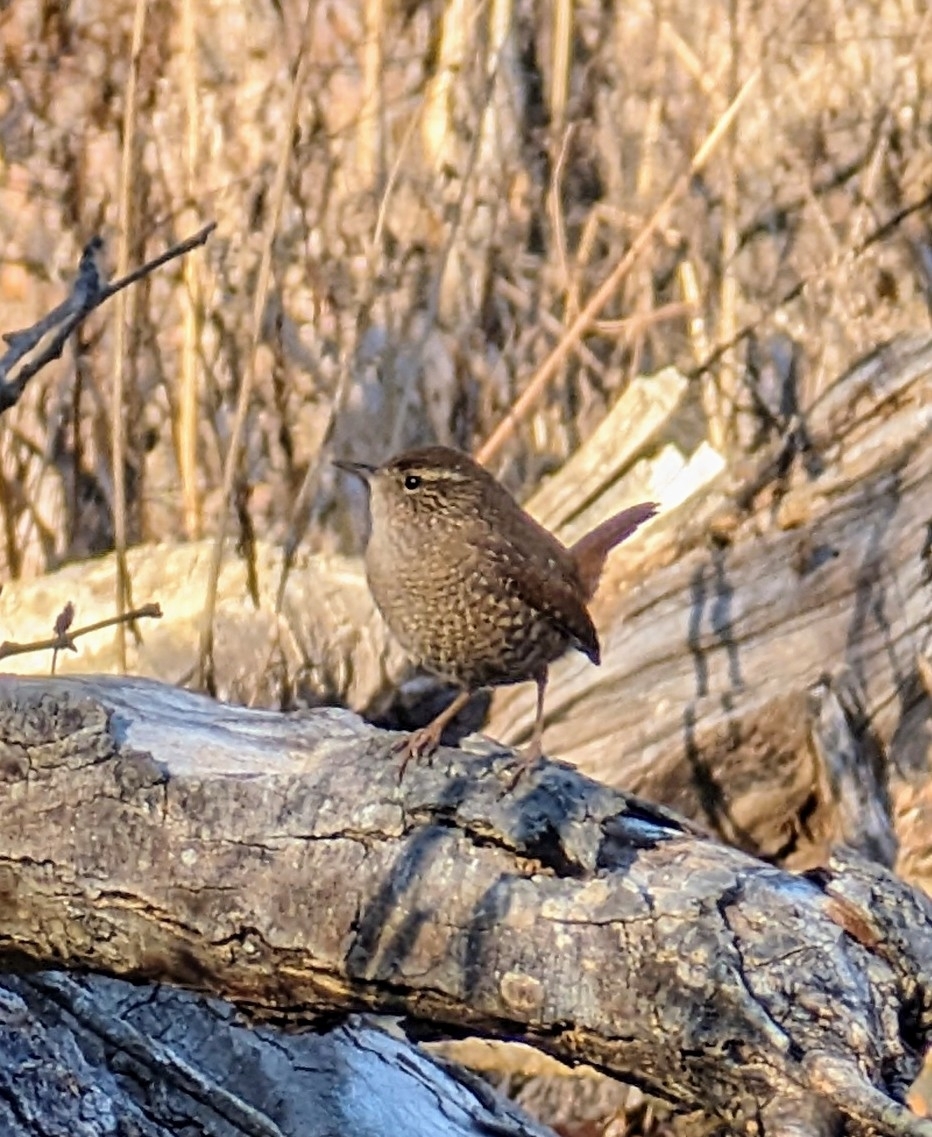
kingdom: Animalia
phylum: Chordata
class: Aves
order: Passeriformes
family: Troglodytidae
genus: Troglodytes
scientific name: Troglodytes hiemalis
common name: Winter wren
